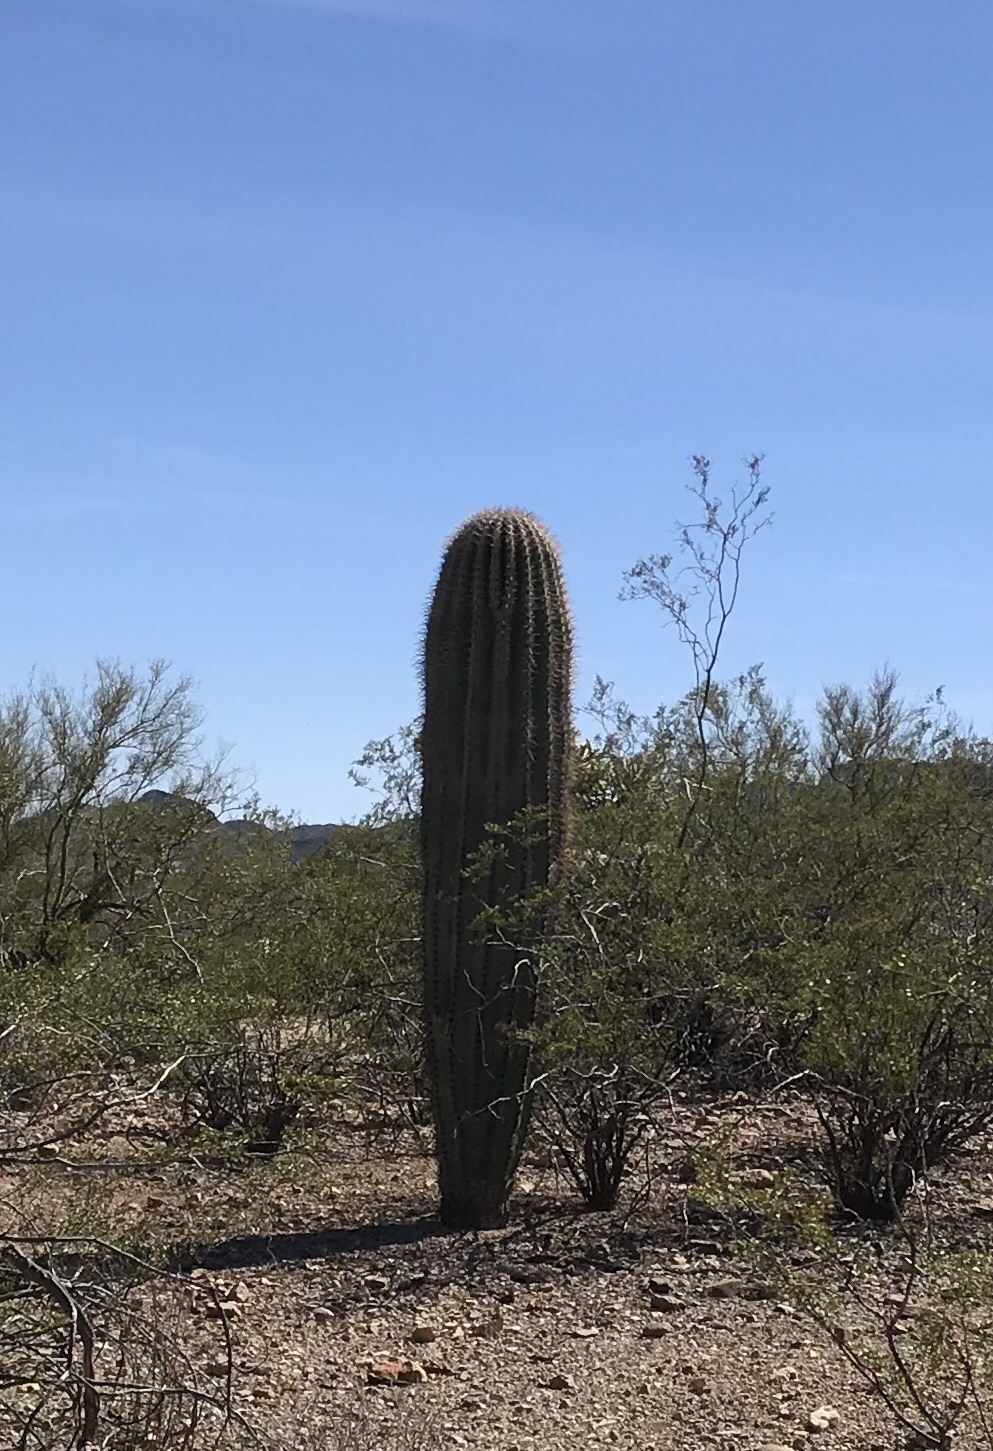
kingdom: Plantae
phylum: Tracheophyta
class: Magnoliopsida
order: Caryophyllales
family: Cactaceae
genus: Carnegiea
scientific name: Carnegiea gigantea
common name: Saguaro
